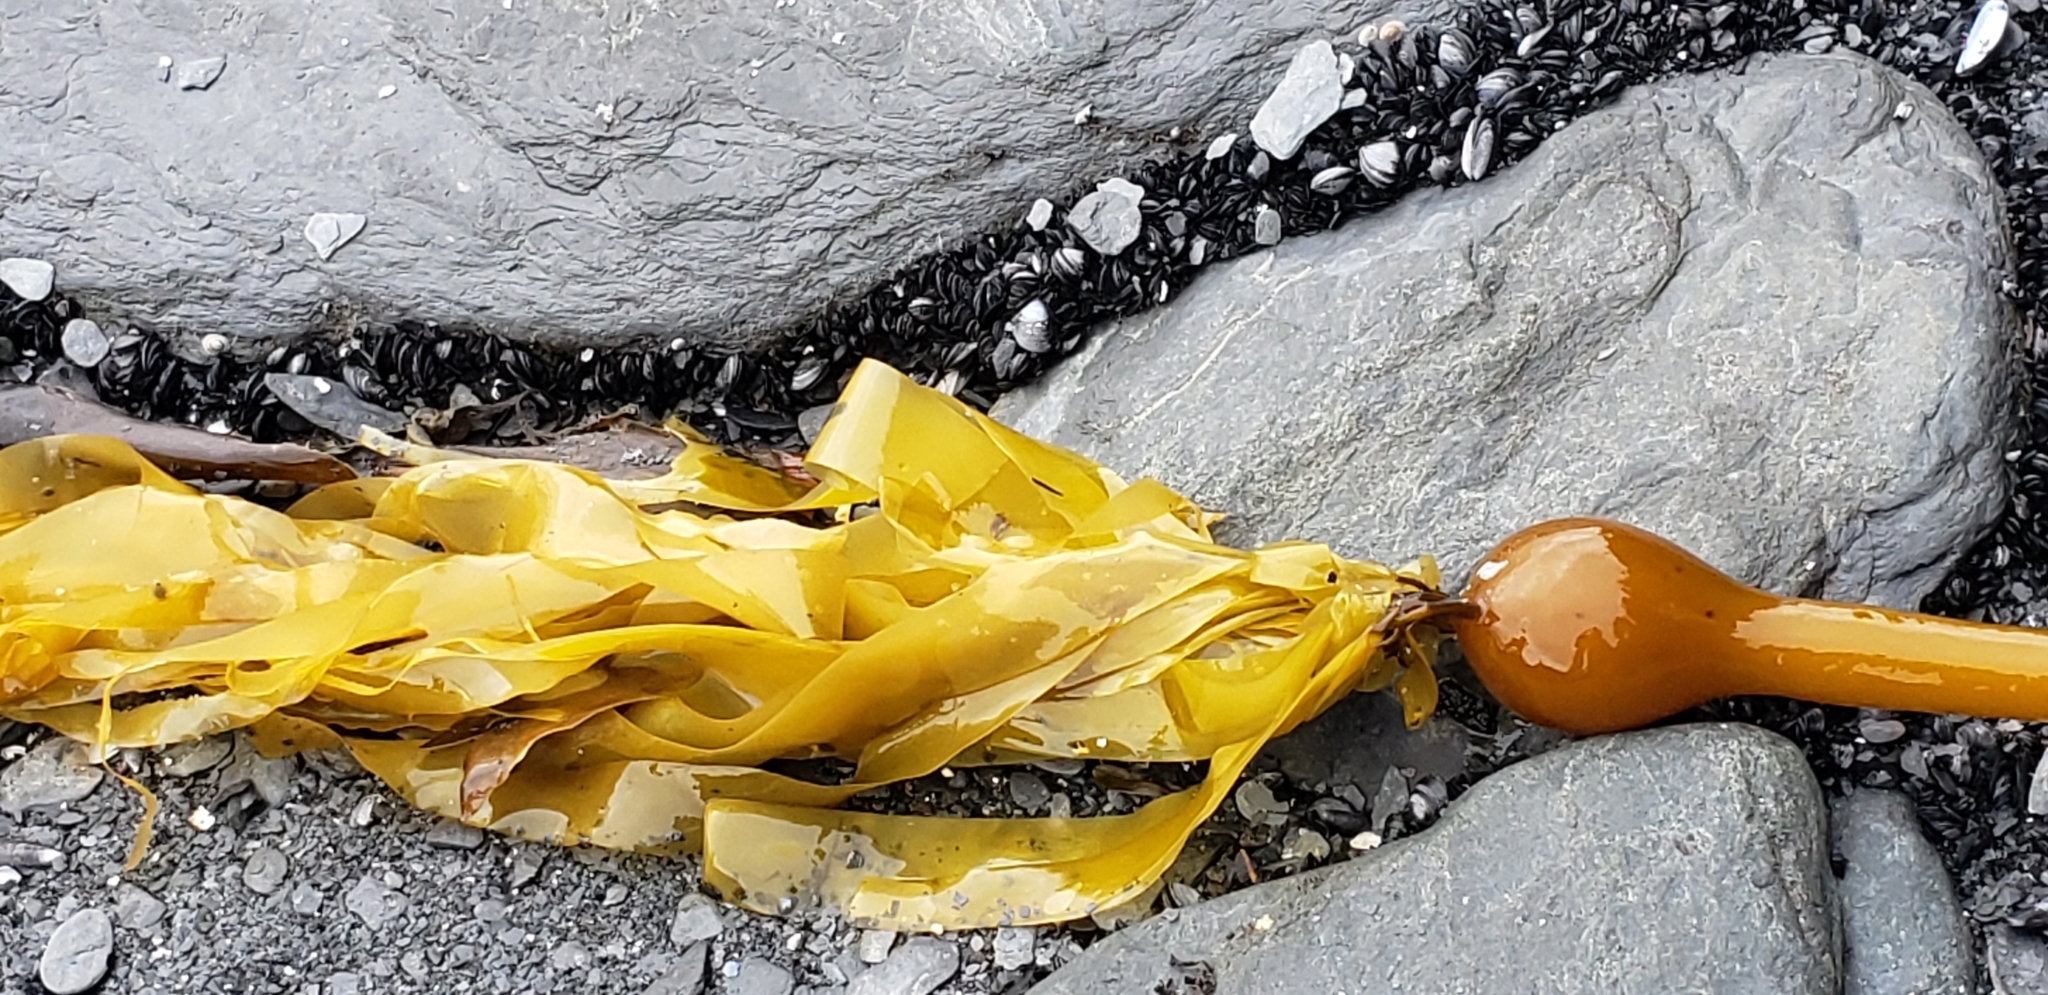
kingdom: Chromista
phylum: Ochrophyta
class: Phaeophyceae
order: Laminariales
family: Laminariaceae
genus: Nereocystis
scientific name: Nereocystis luetkeana
